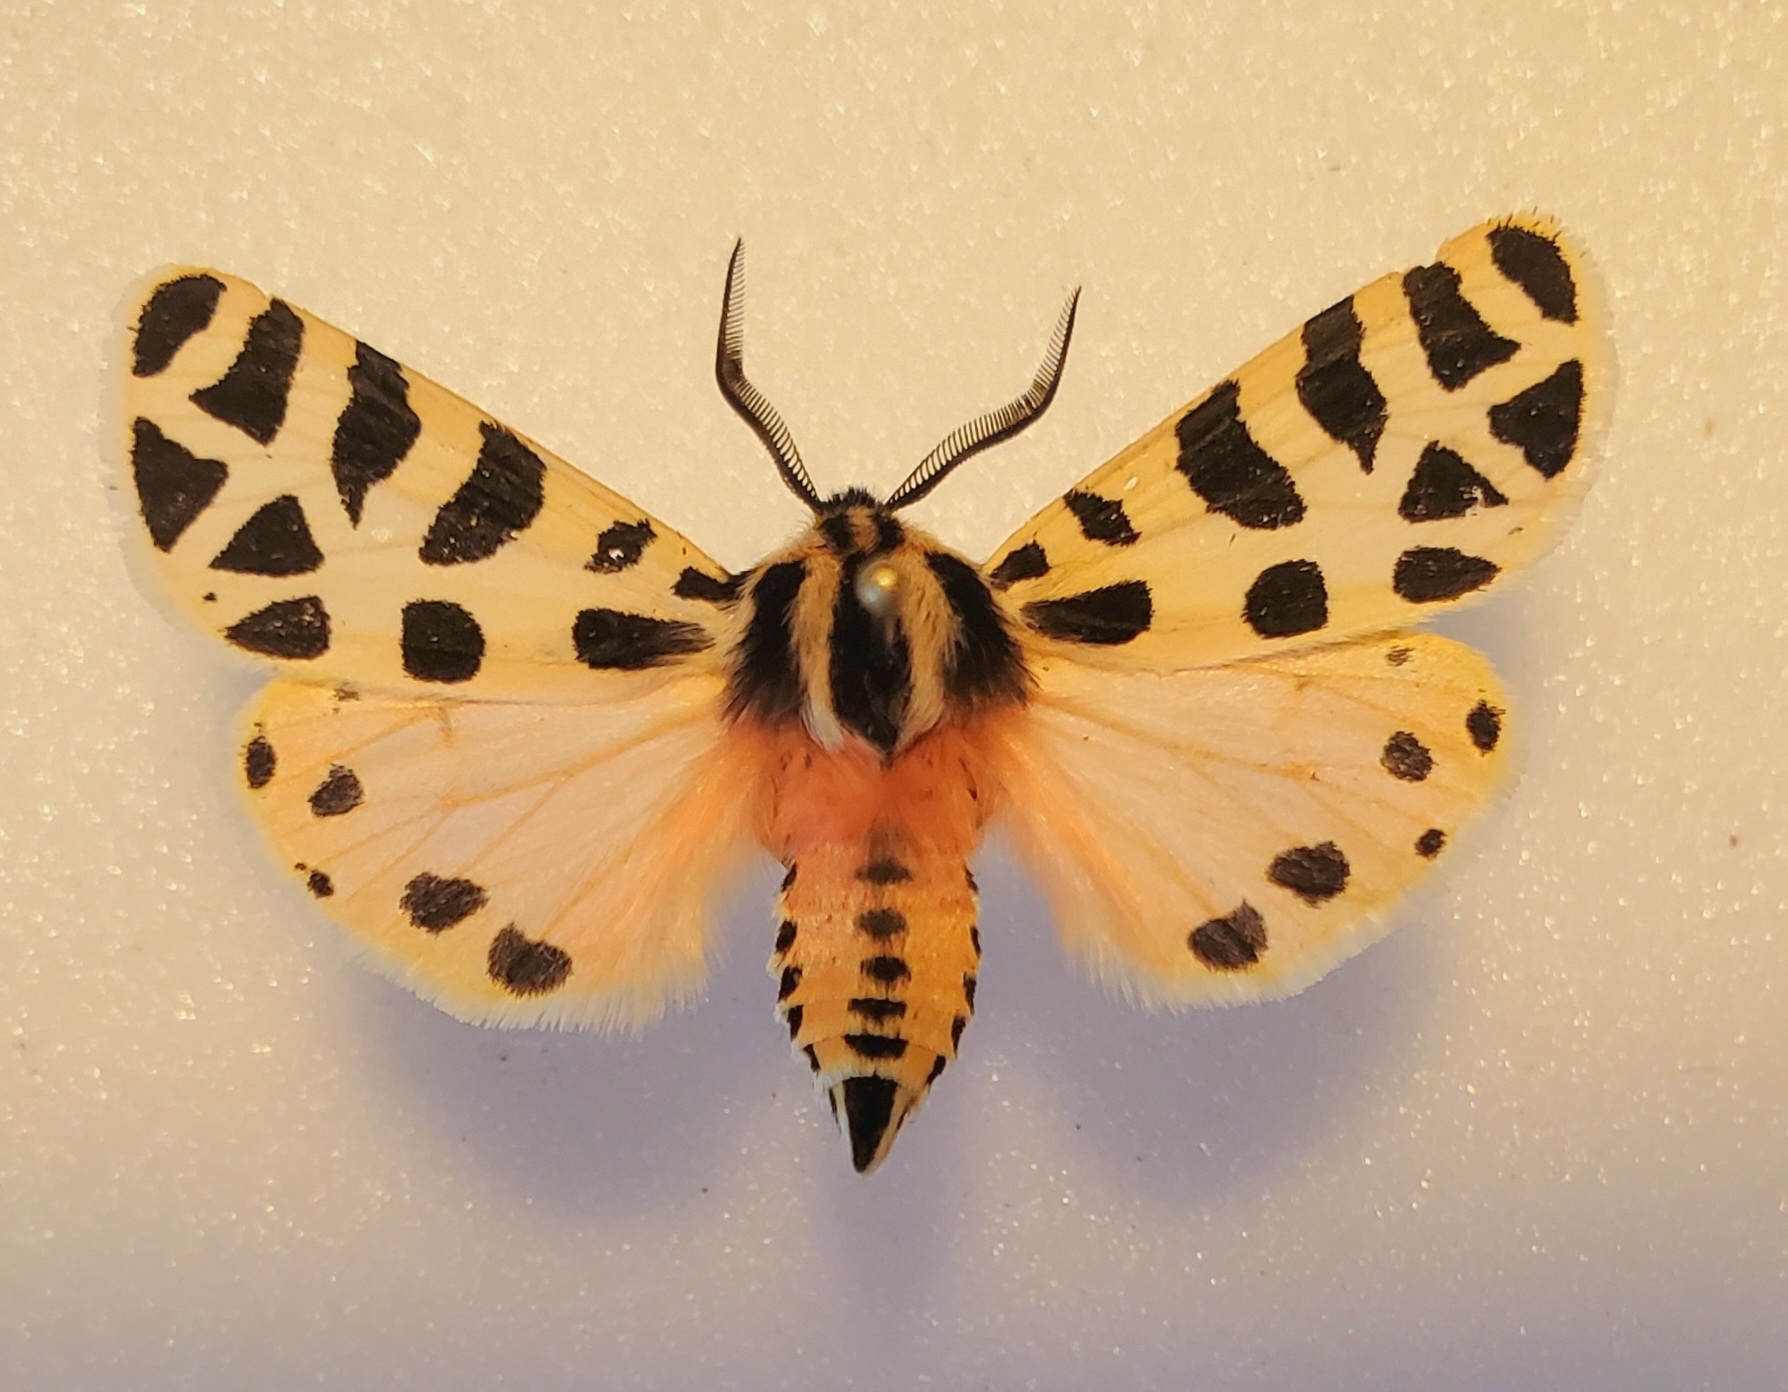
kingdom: Animalia
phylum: Arthropoda
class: Insecta
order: Lepidoptera
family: Erebidae
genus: Apantesis
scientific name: Apantesis incorrupta
